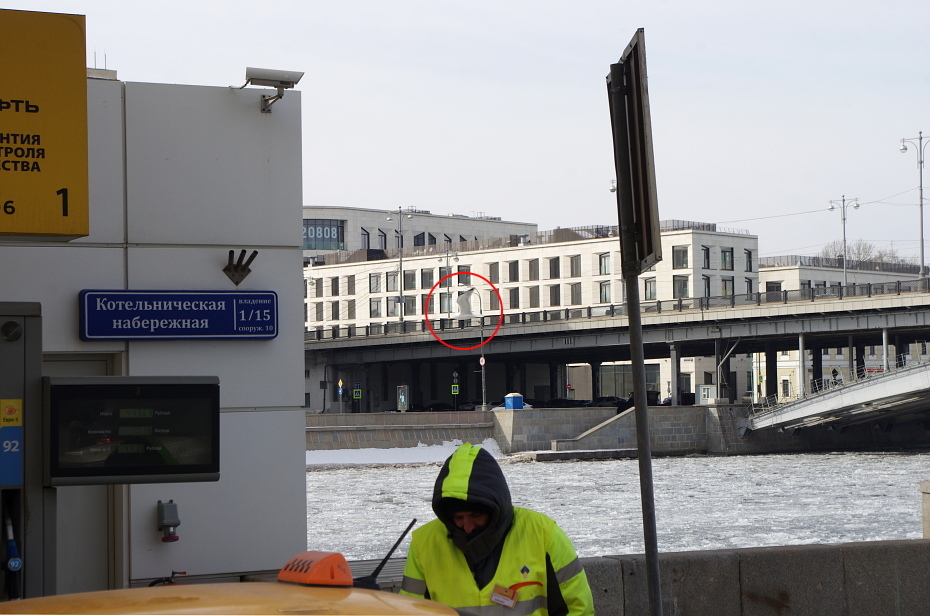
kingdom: Animalia
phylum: Chordata
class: Aves
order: Charadriiformes
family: Laridae
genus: Larus
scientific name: Larus argentatus
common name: Herring gull
